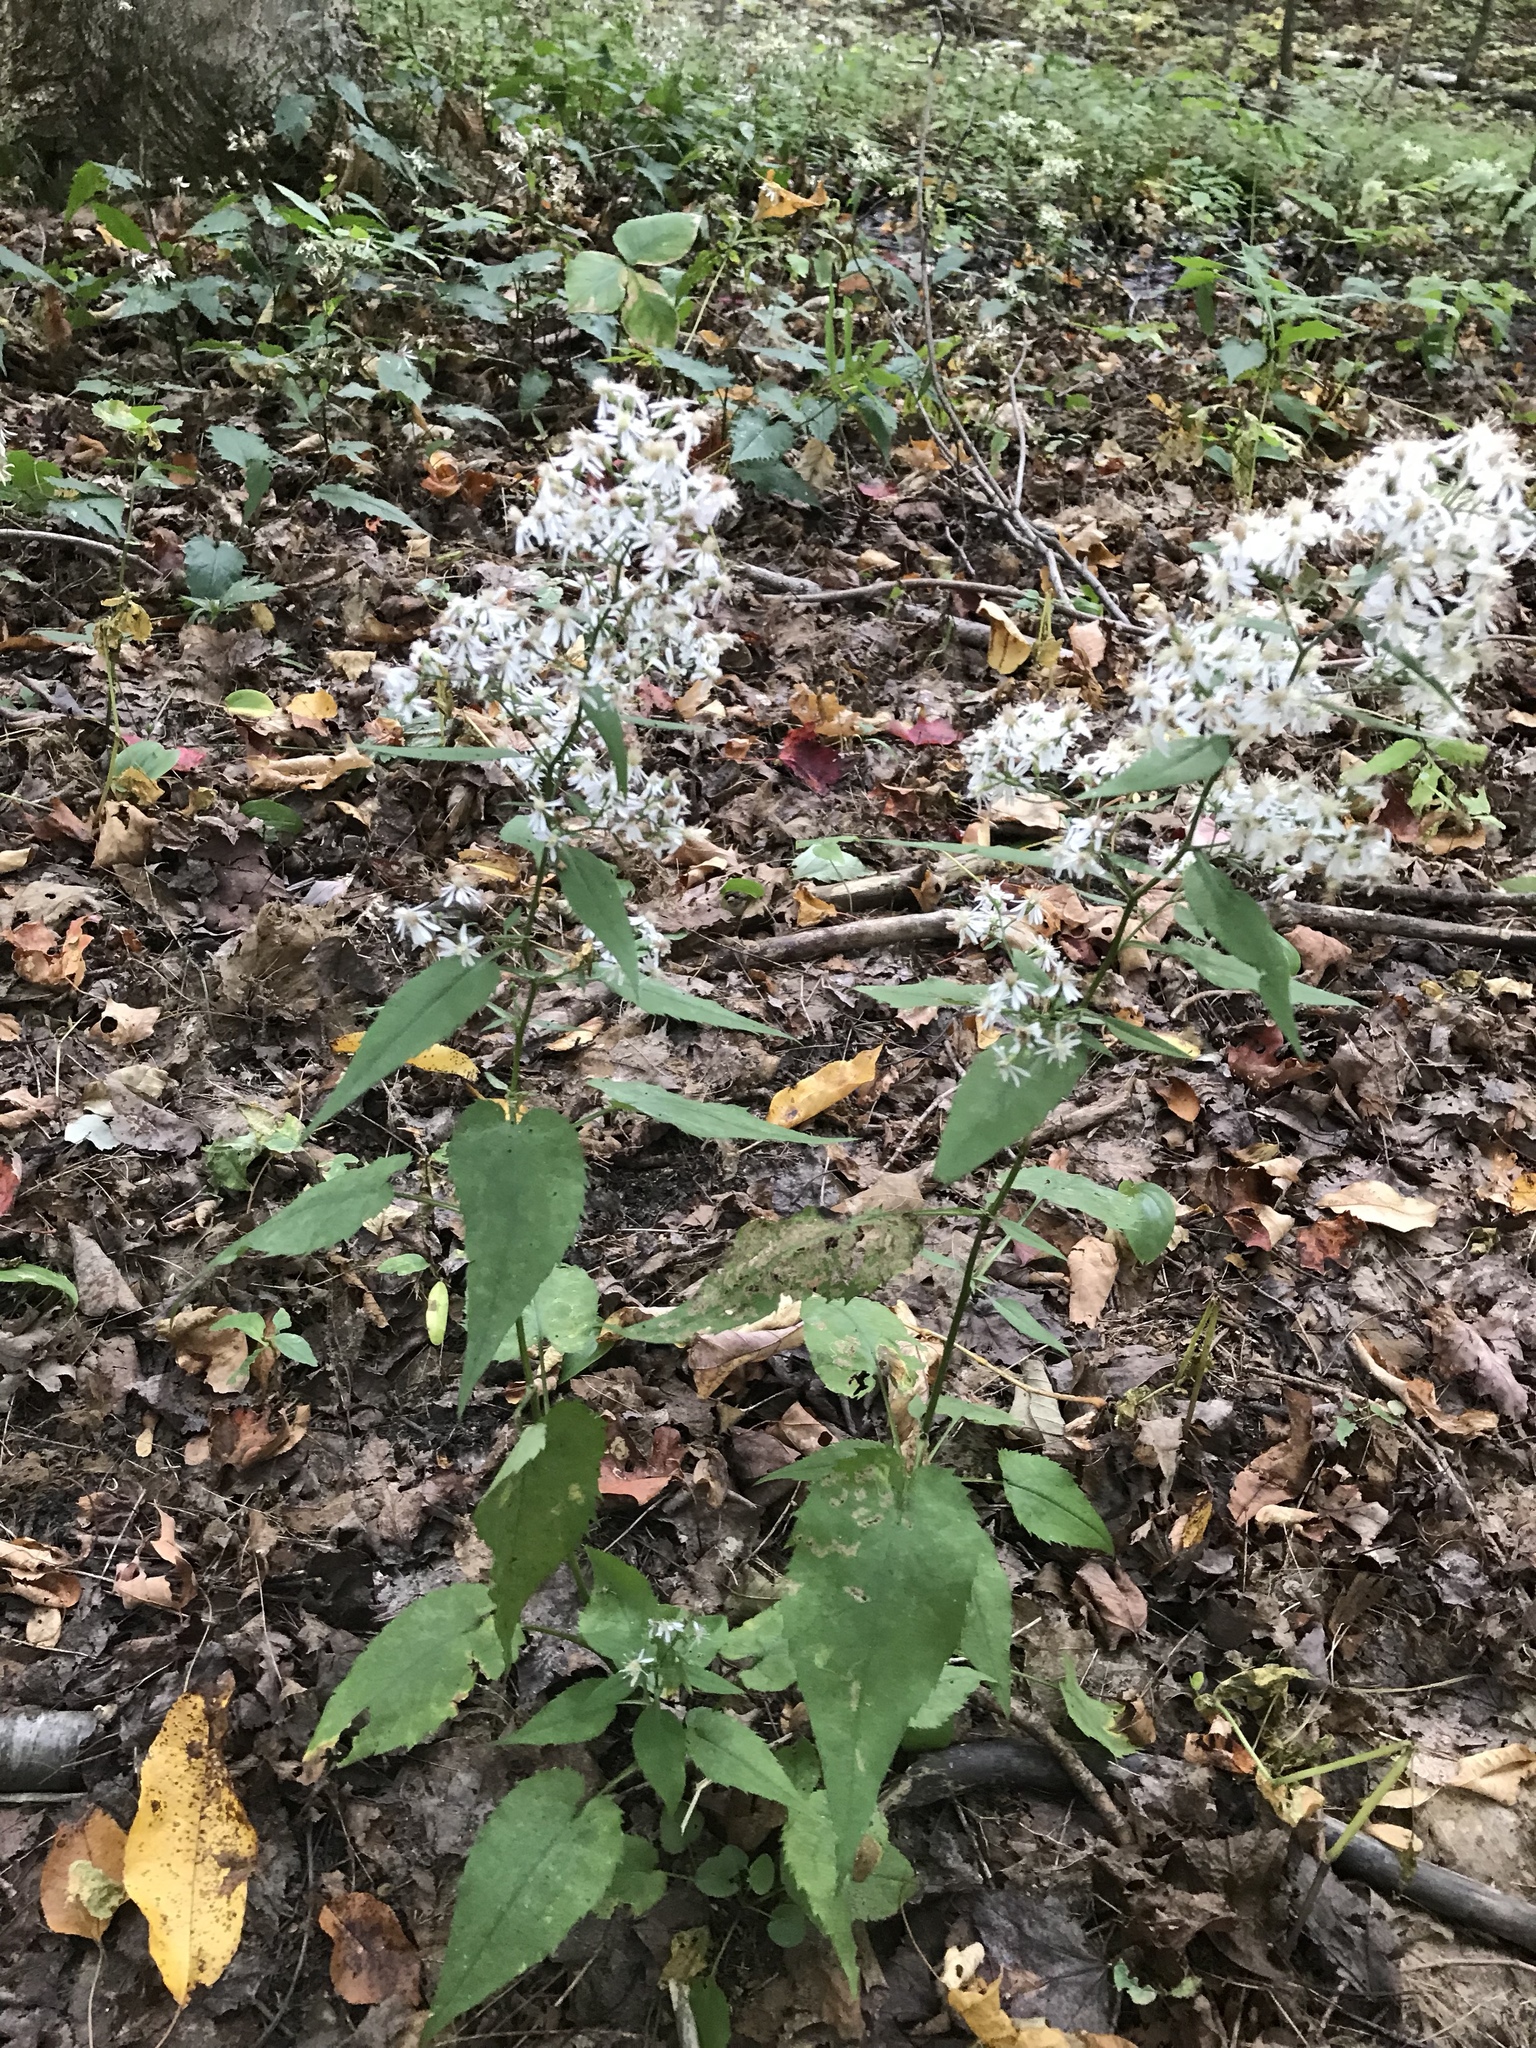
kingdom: Plantae
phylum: Tracheophyta
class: Magnoliopsida
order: Asterales
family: Asteraceae
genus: Eurybia
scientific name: Eurybia divaricata
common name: White wood aster
